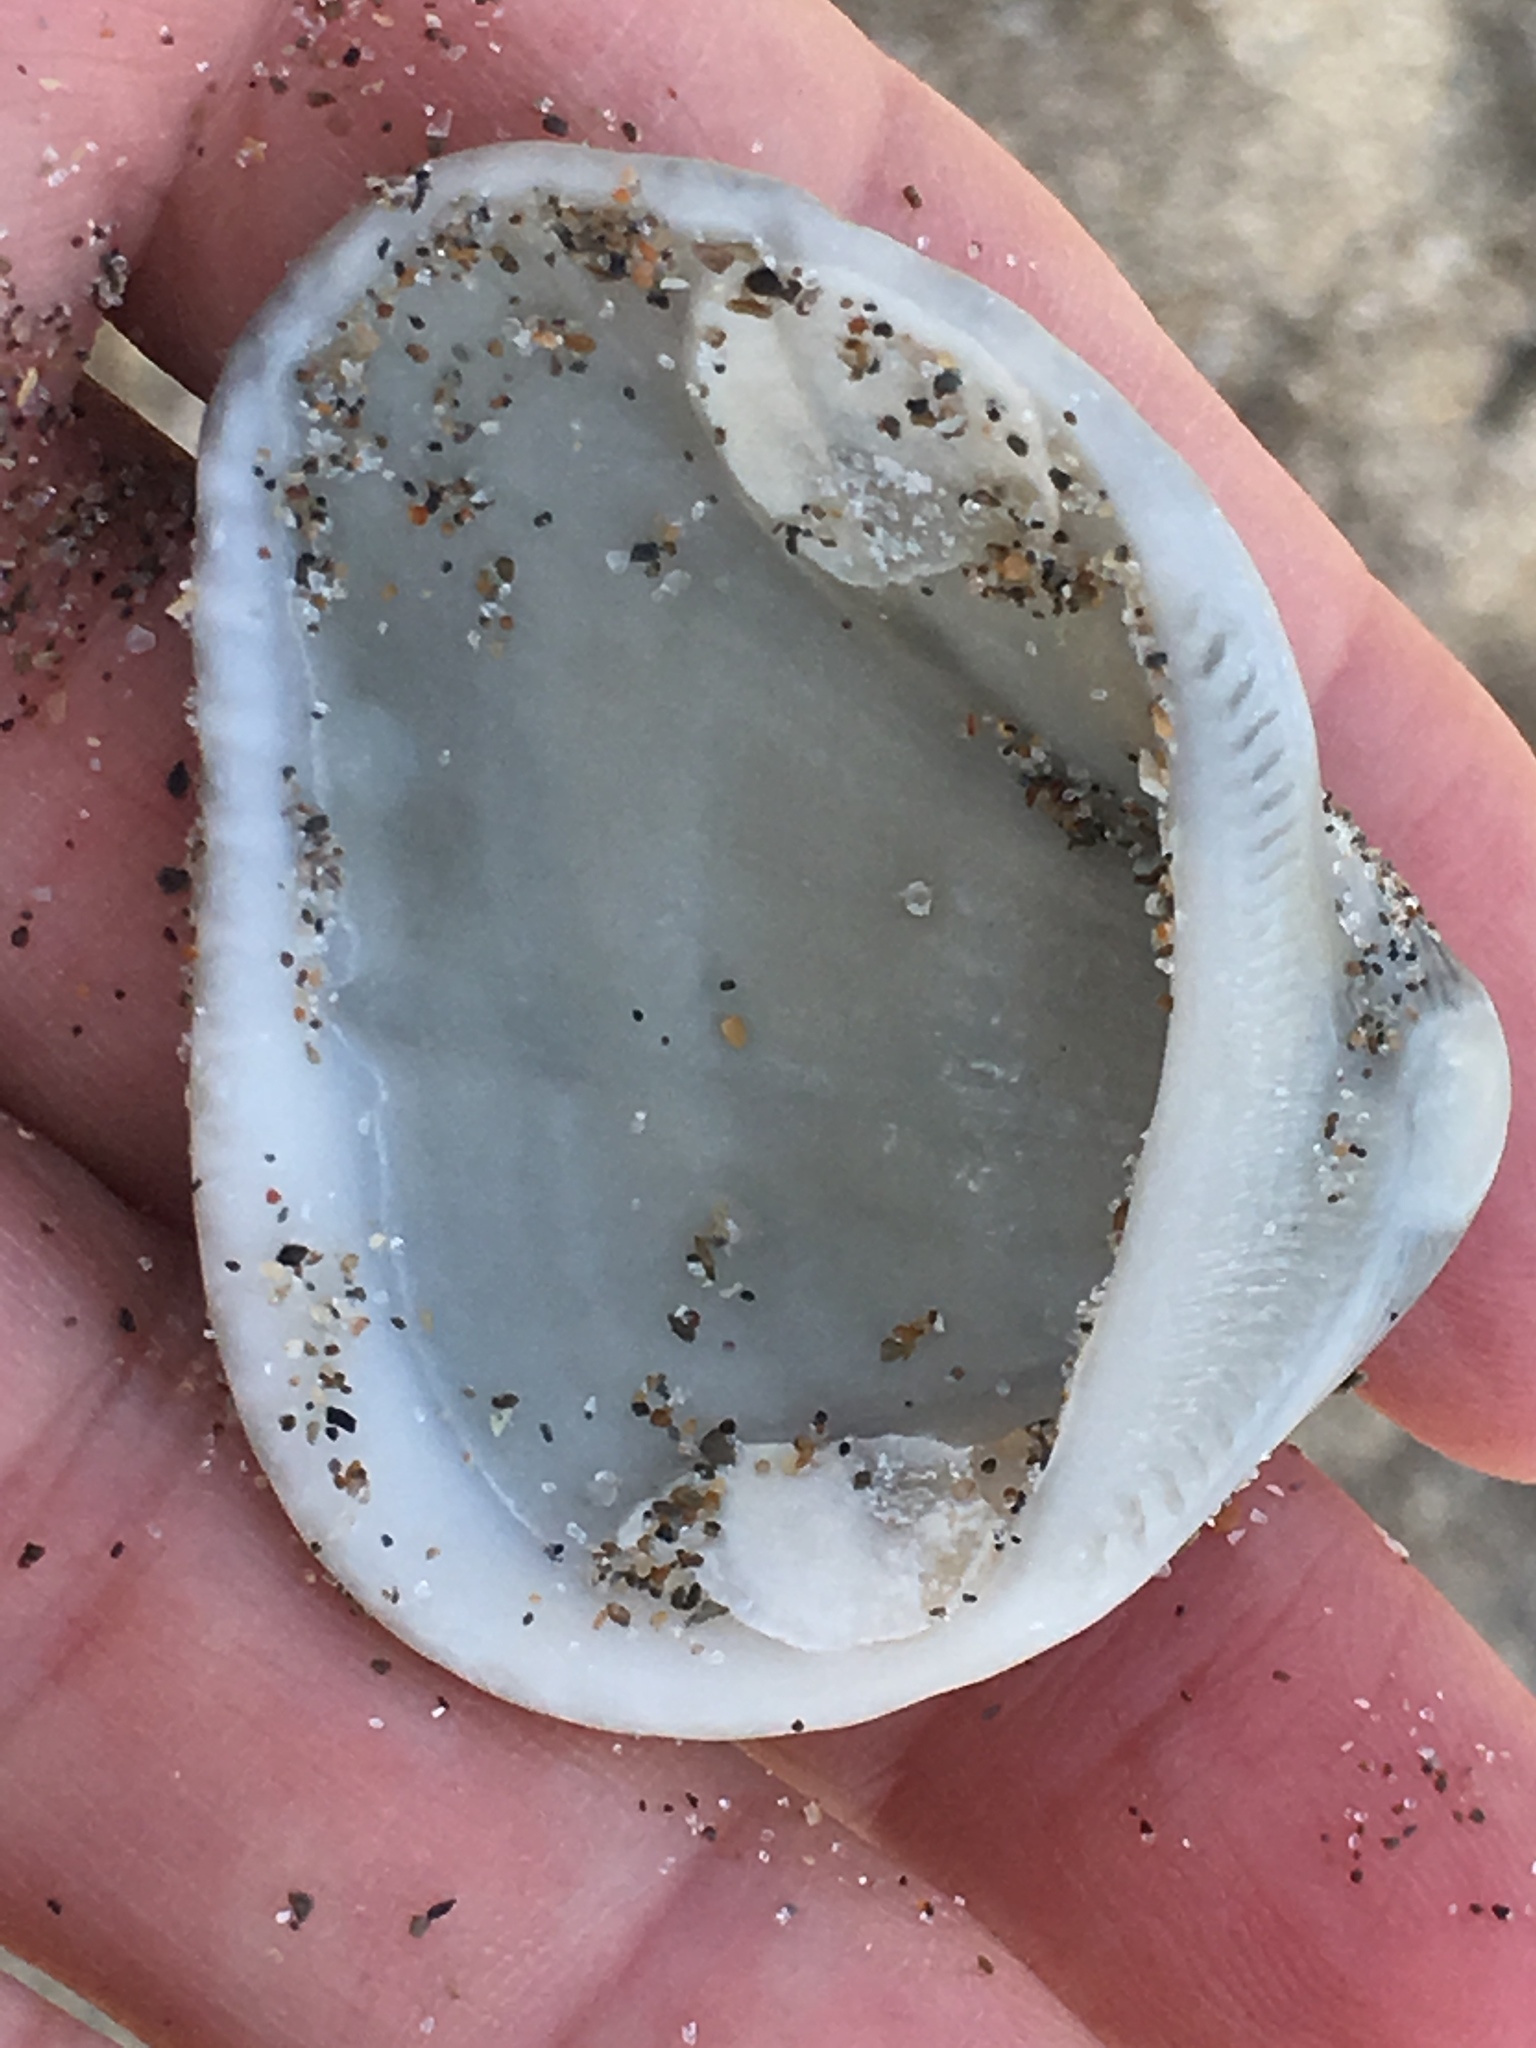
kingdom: Animalia
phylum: Mollusca
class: Bivalvia
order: Arcida
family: Noetiidae
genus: Noetia
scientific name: Noetia ponderosa
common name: Ponderous ark
